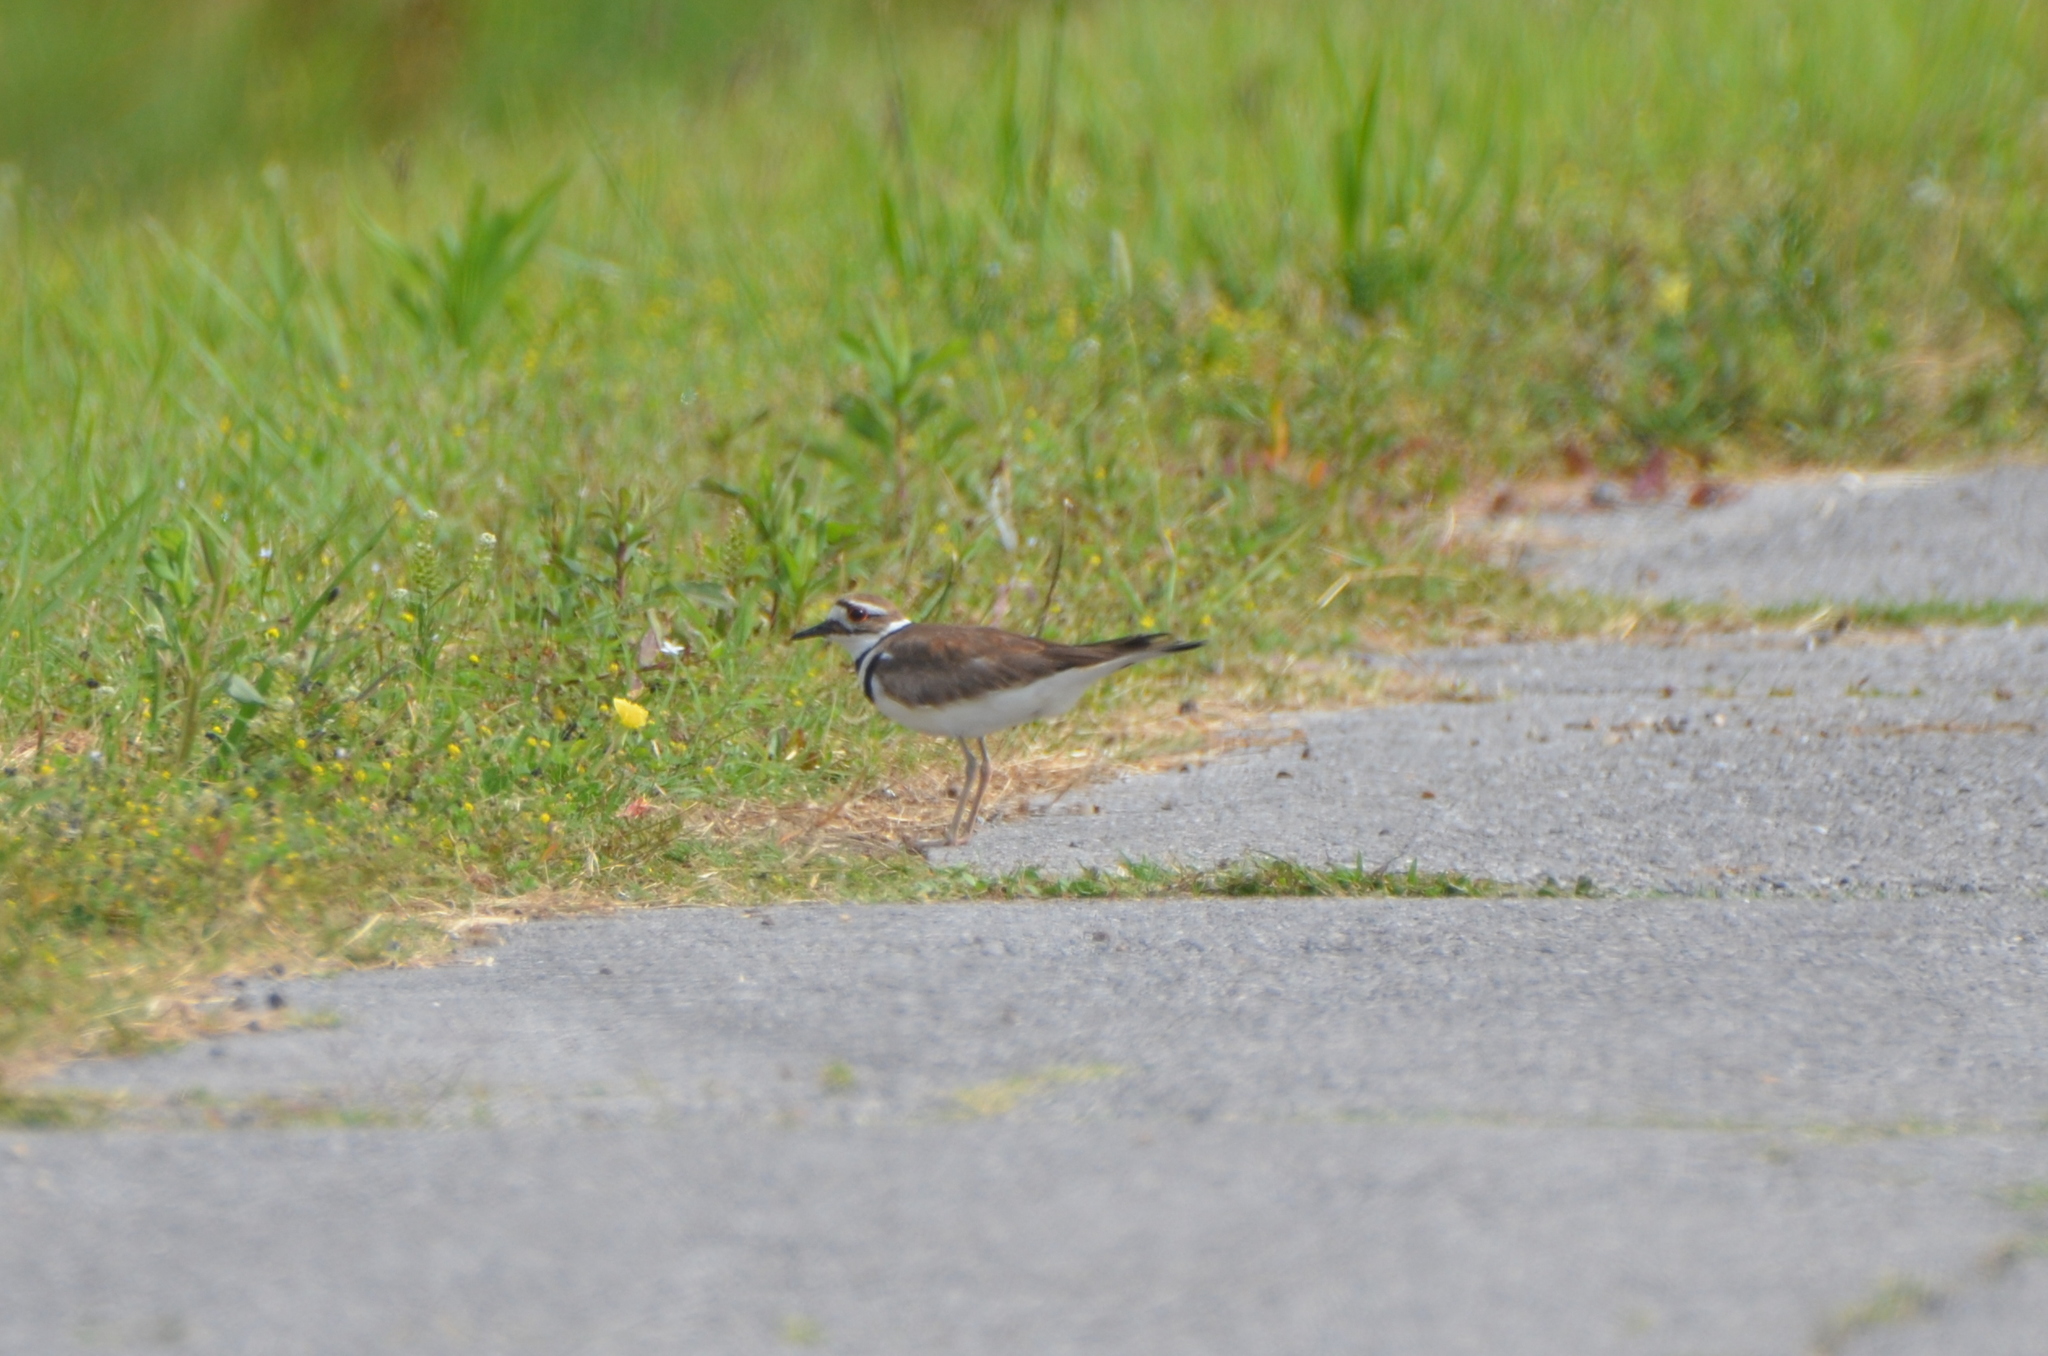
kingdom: Animalia
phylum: Chordata
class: Aves
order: Charadriiformes
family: Charadriidae
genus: Charadrius
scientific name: Charadrius vociferus
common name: Killdeer
